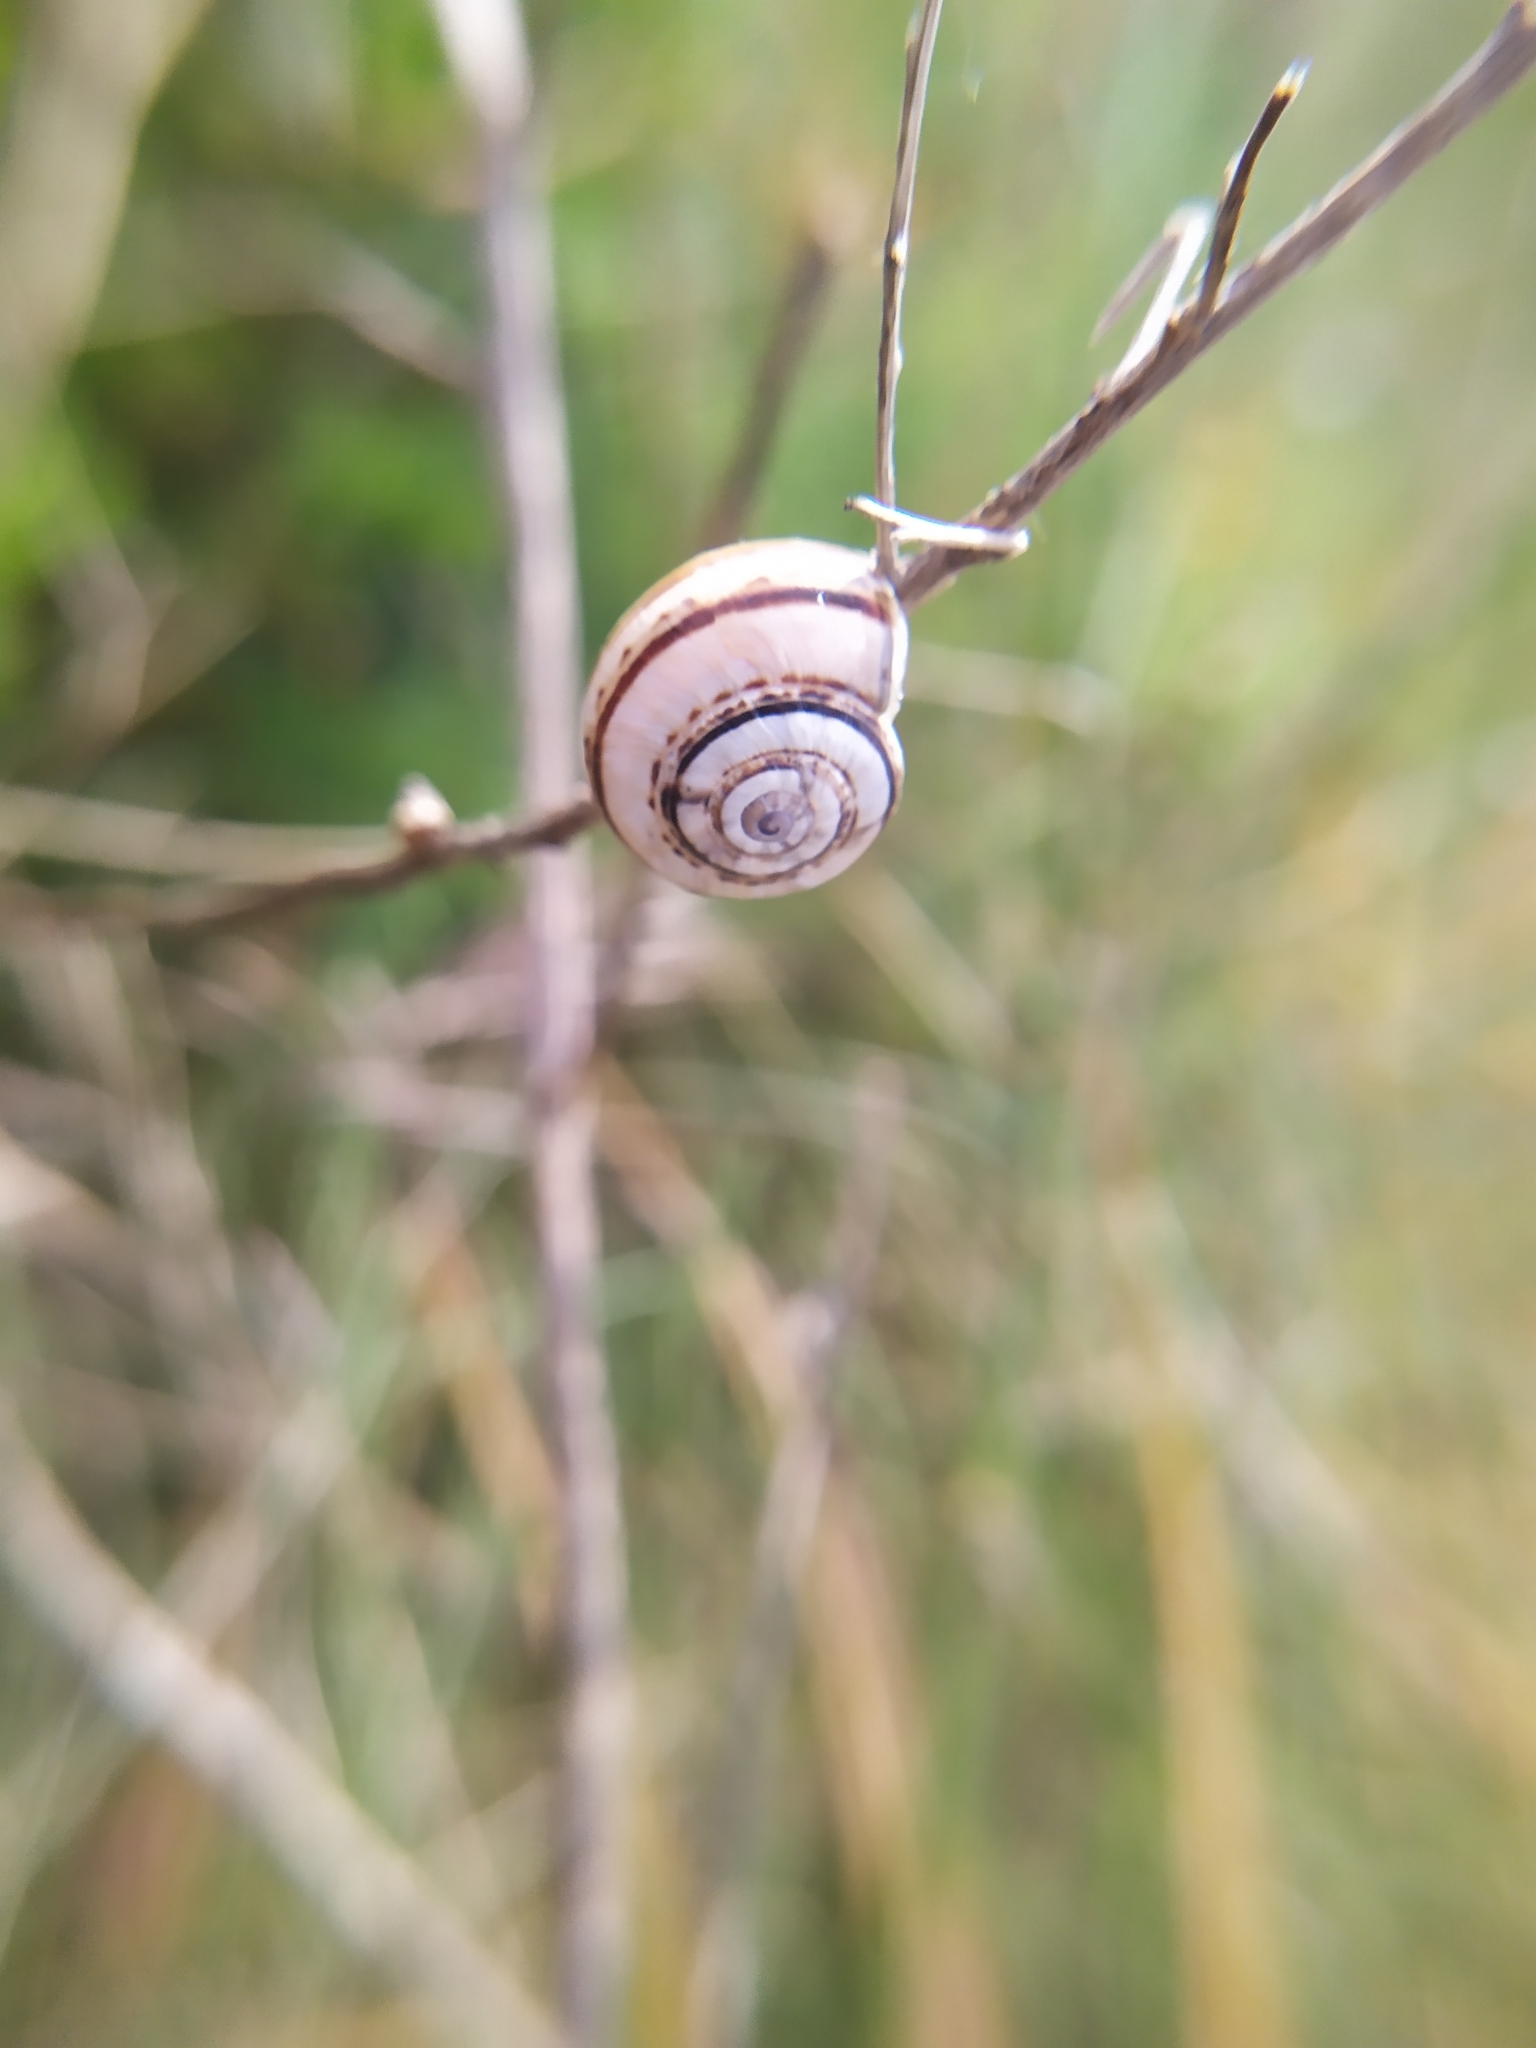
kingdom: Animalia
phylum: Mollusca
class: Gastropoda
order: Stylommatophora
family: Helicidae
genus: Theba
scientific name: Theba pisana
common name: White snail
